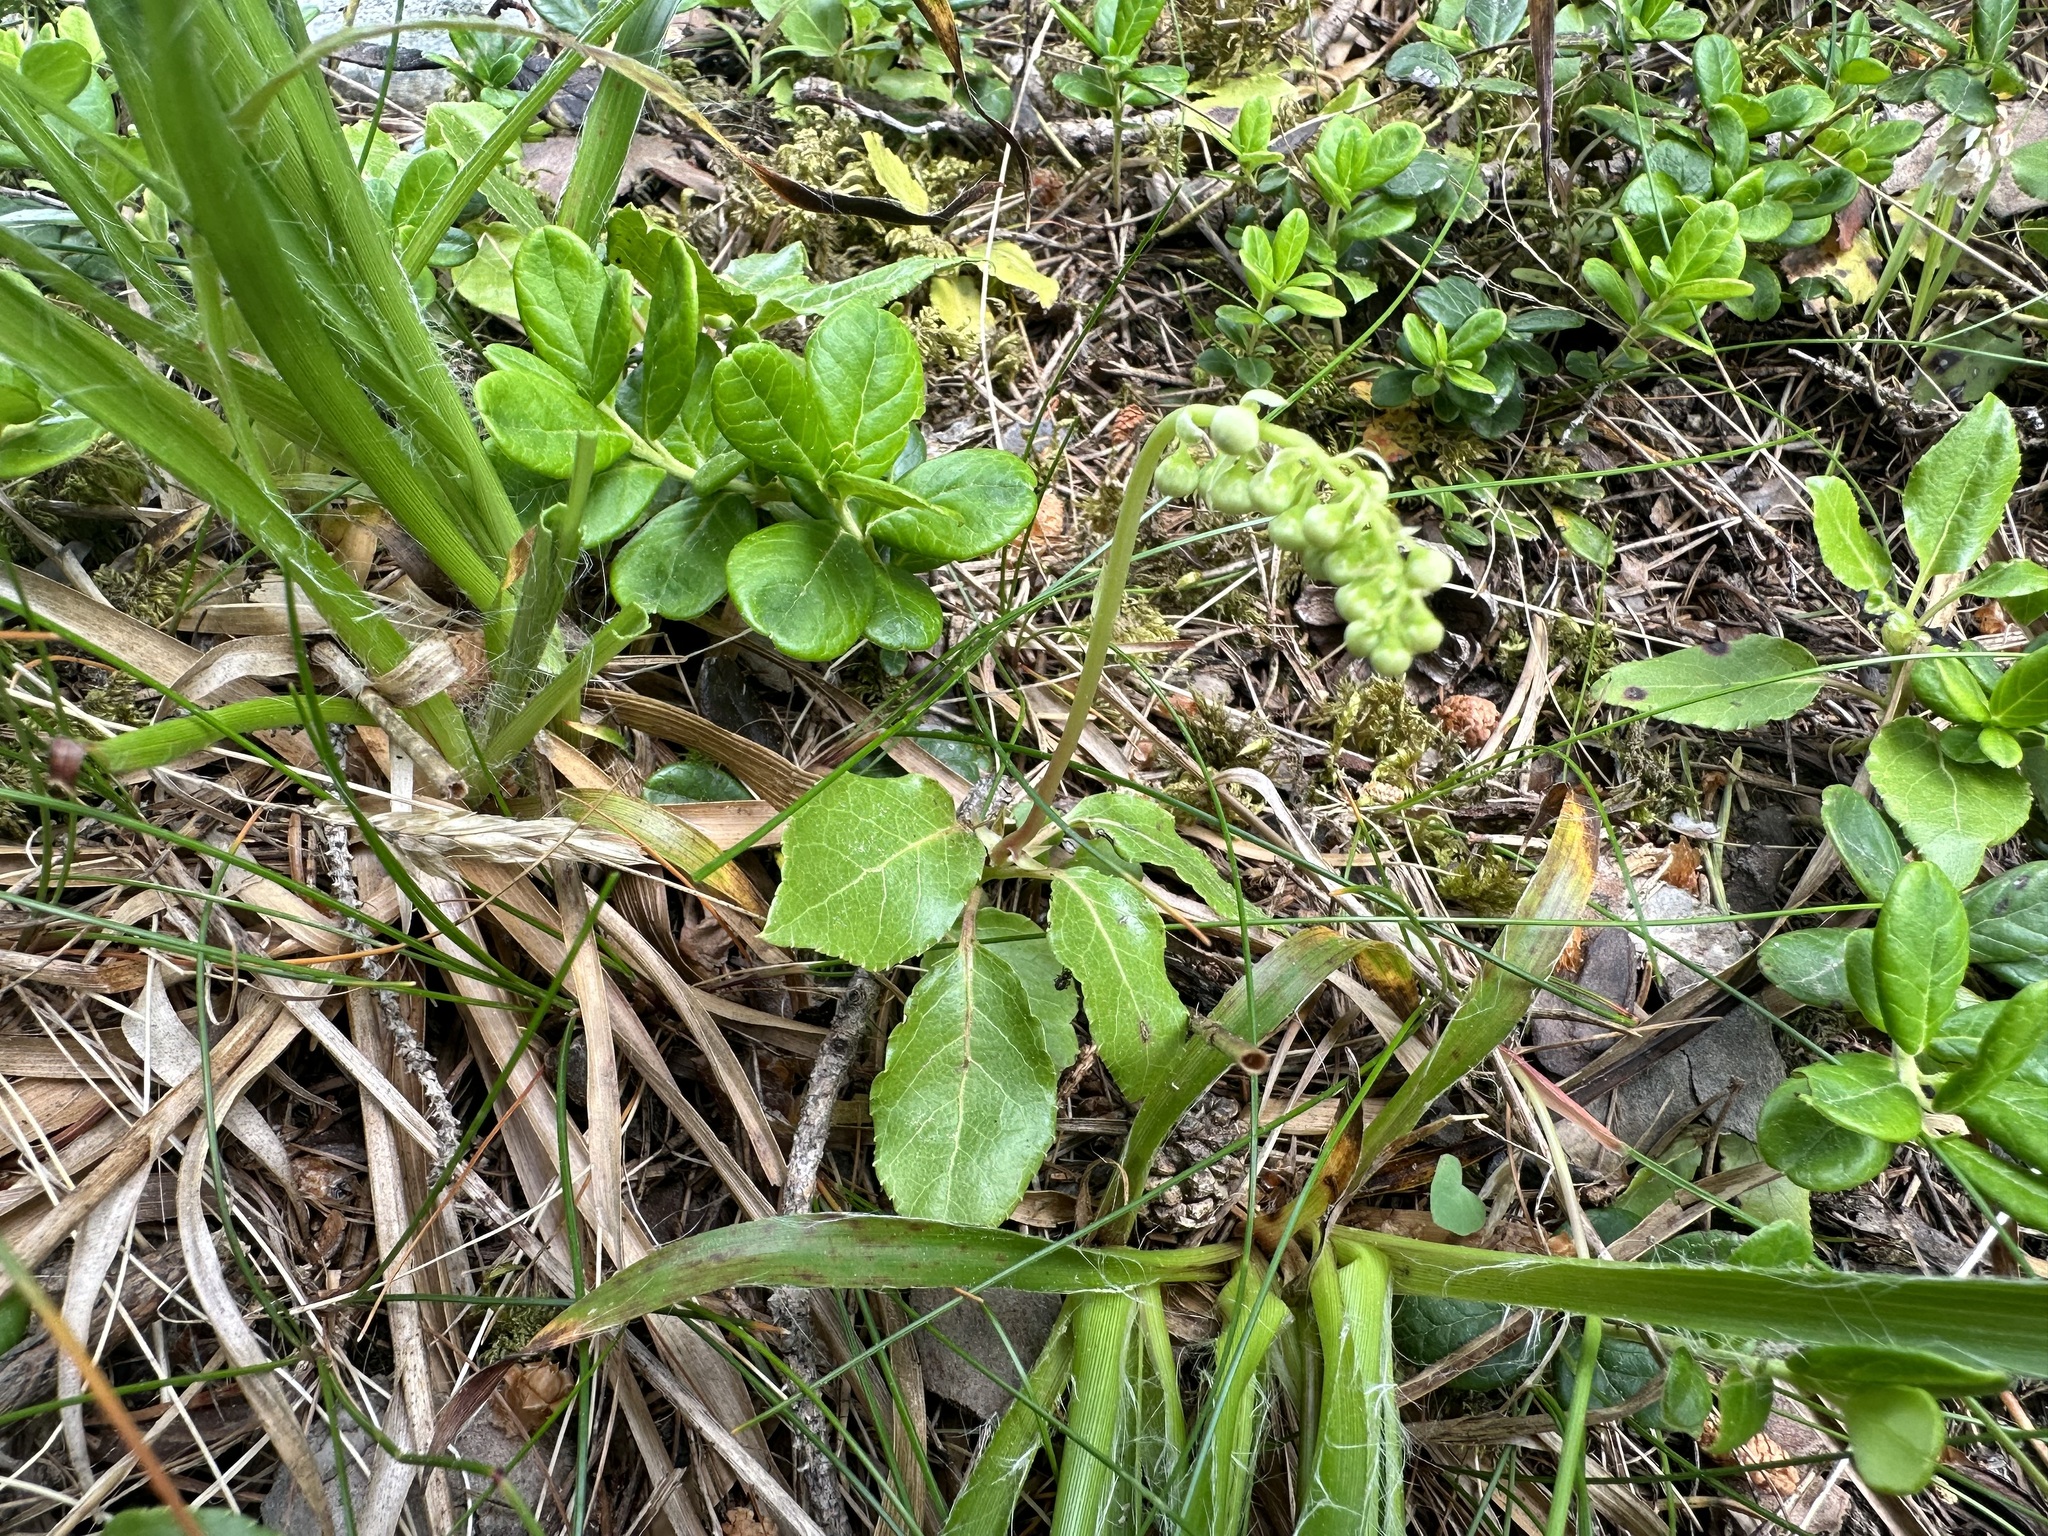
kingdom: Plantae
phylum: Tracheophyta
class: Magnoliopsida
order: Ericales
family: Ericaceae
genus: Orthilia
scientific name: Orthilia secunda
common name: One-sided orthilia
